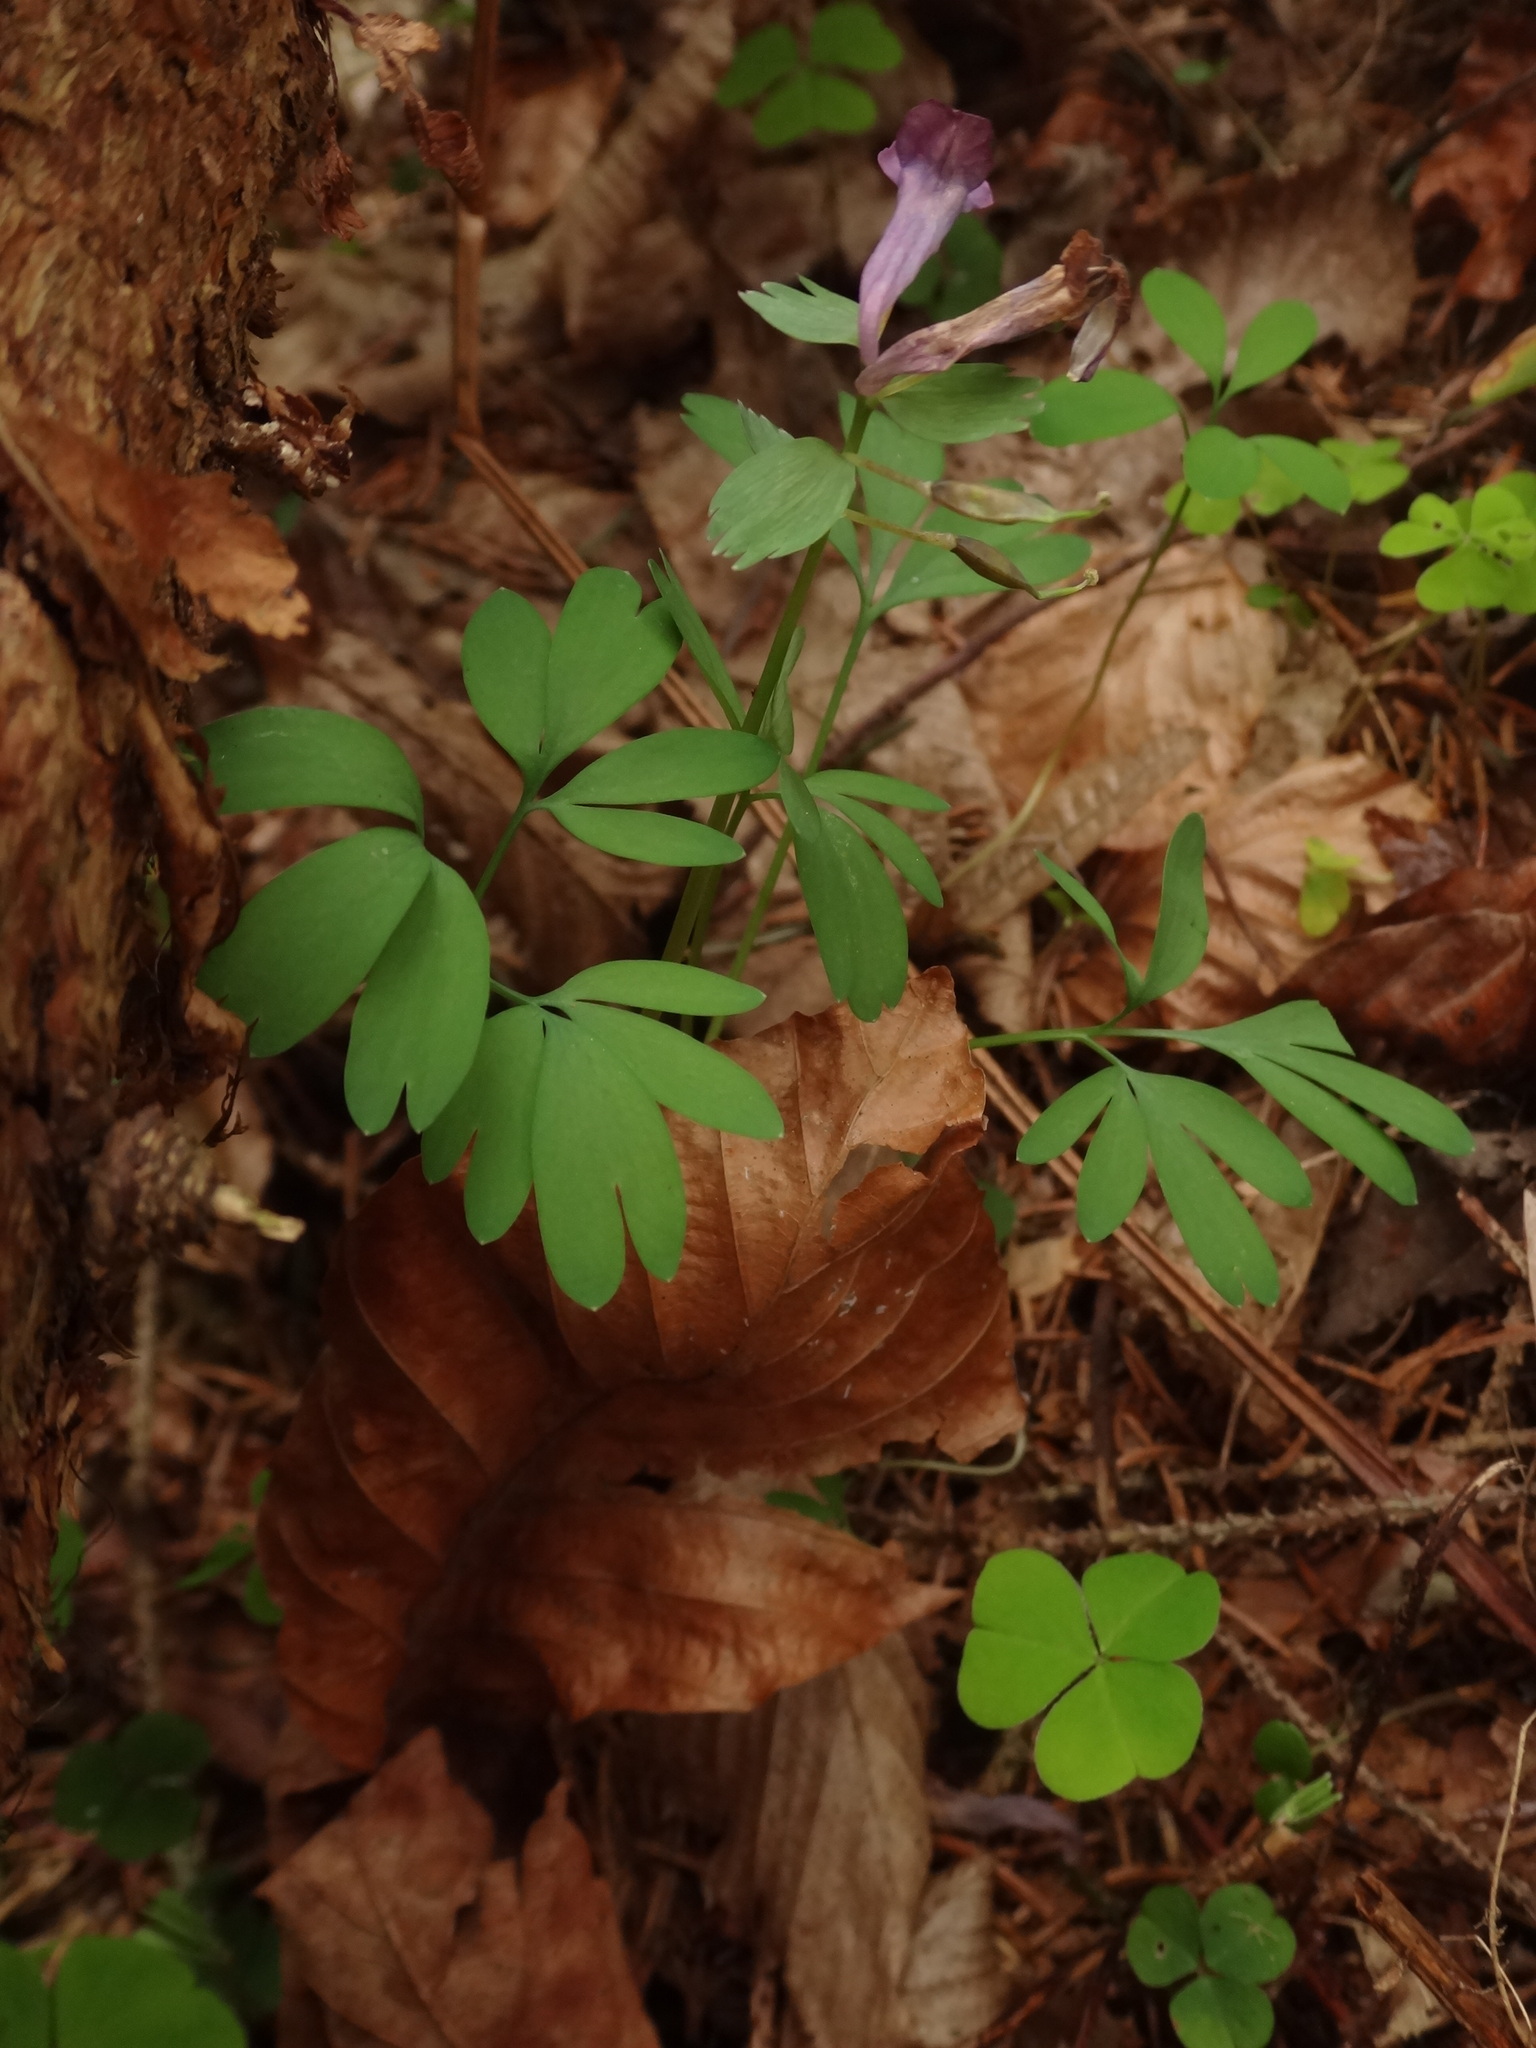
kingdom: Plantae
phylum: Tracheophyta
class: Magnoliopsida
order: Ranunculales
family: Papaveraceae
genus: Corydalis
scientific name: Corydalis solida
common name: Bird-in-a-bush
